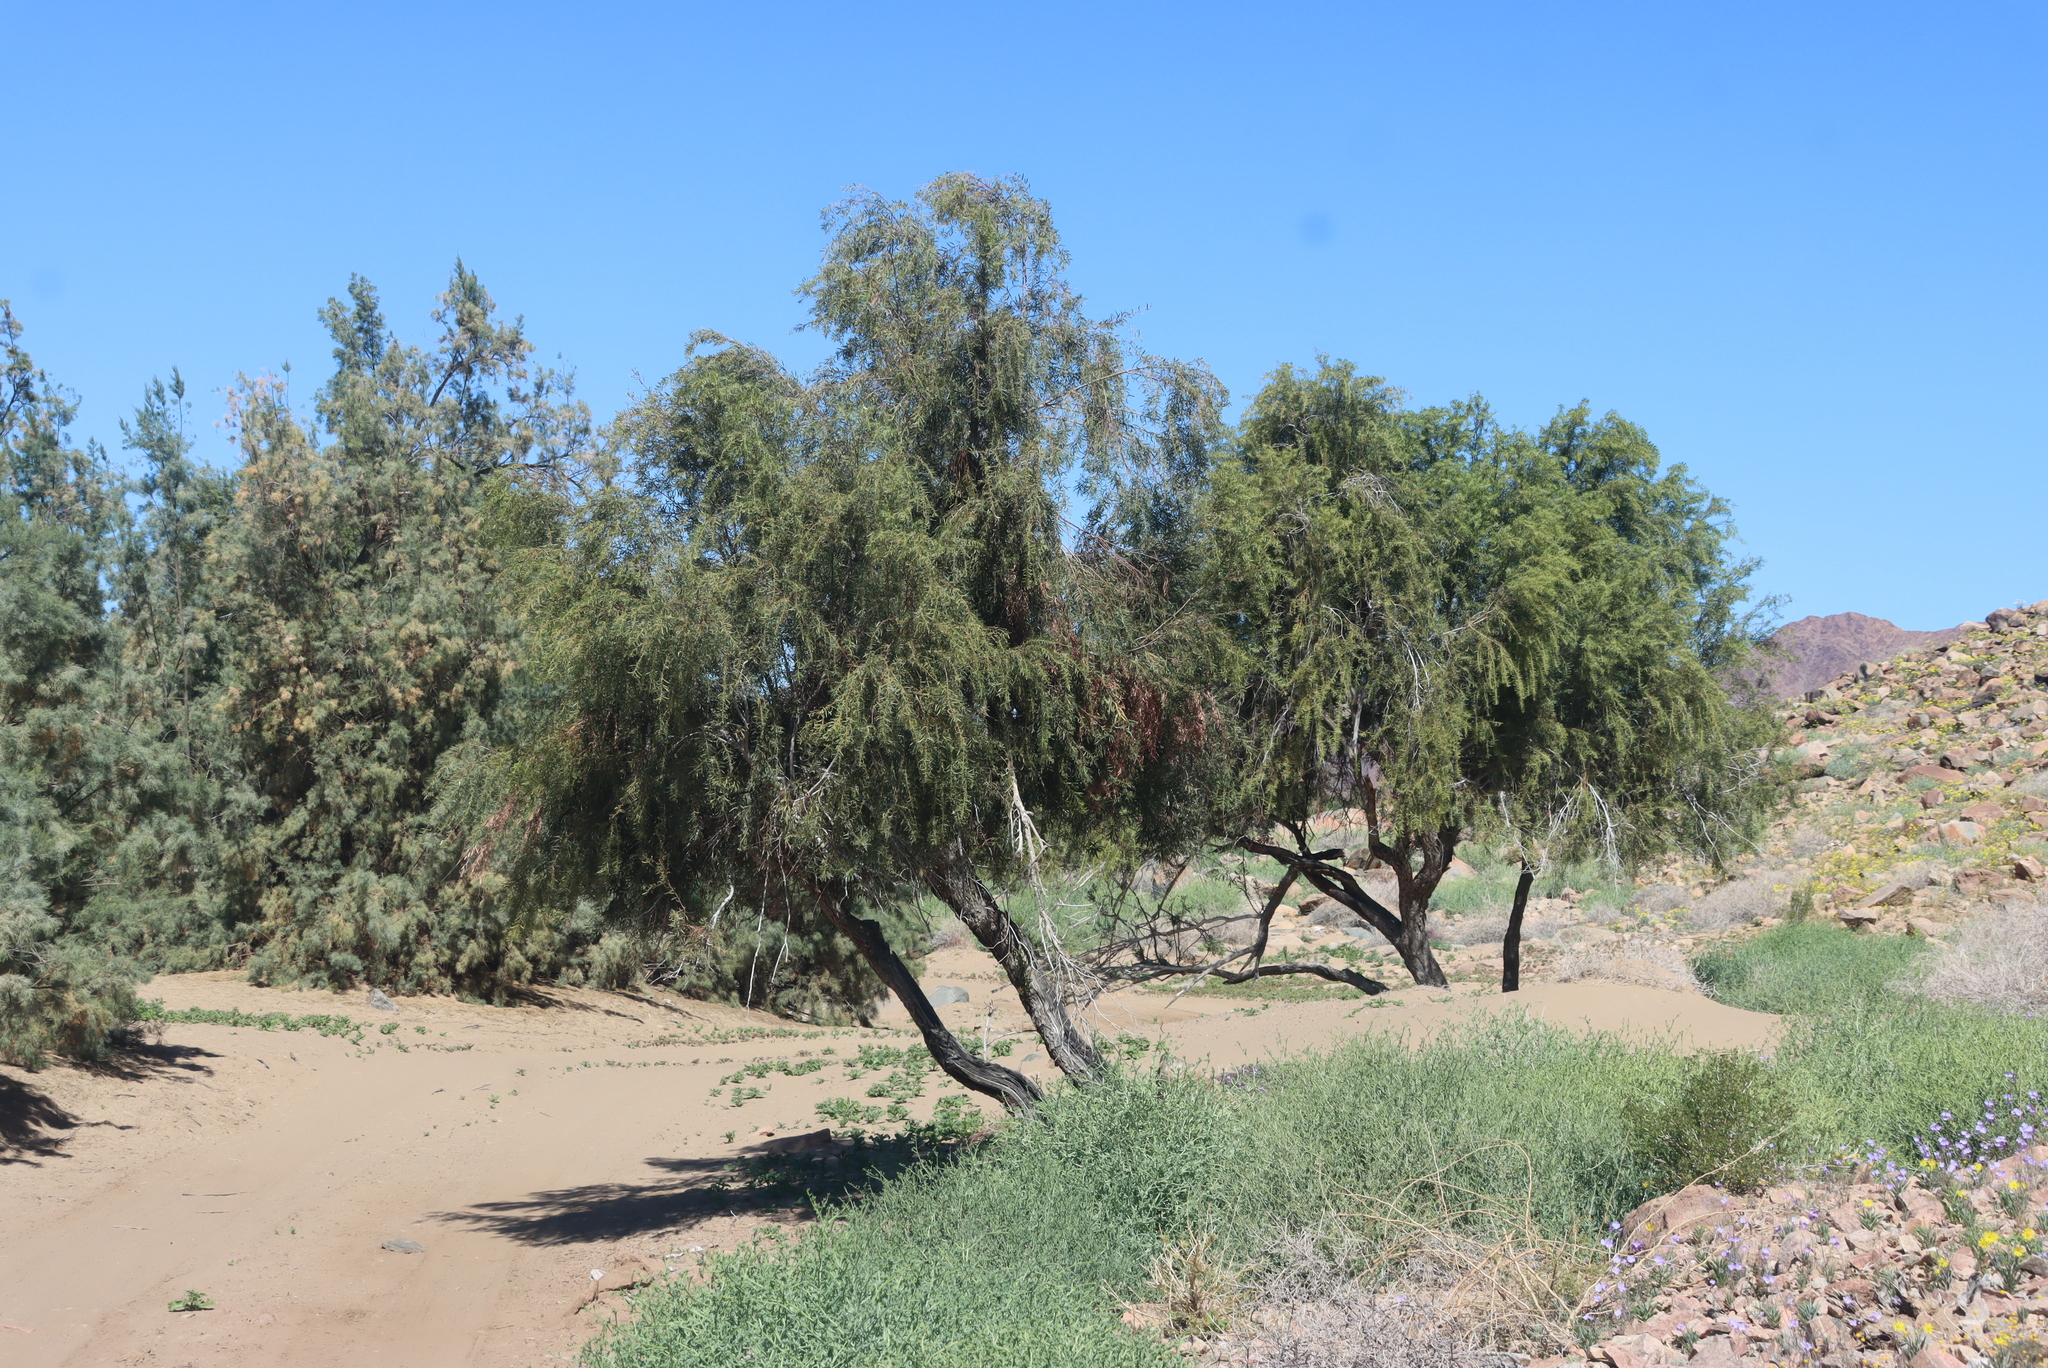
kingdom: Plantae
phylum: Tracheophyta
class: Magnoliopsida
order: Ericales
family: Ebenaceae
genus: Euclea
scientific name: Euclea pseudebenus
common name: Black ebony
